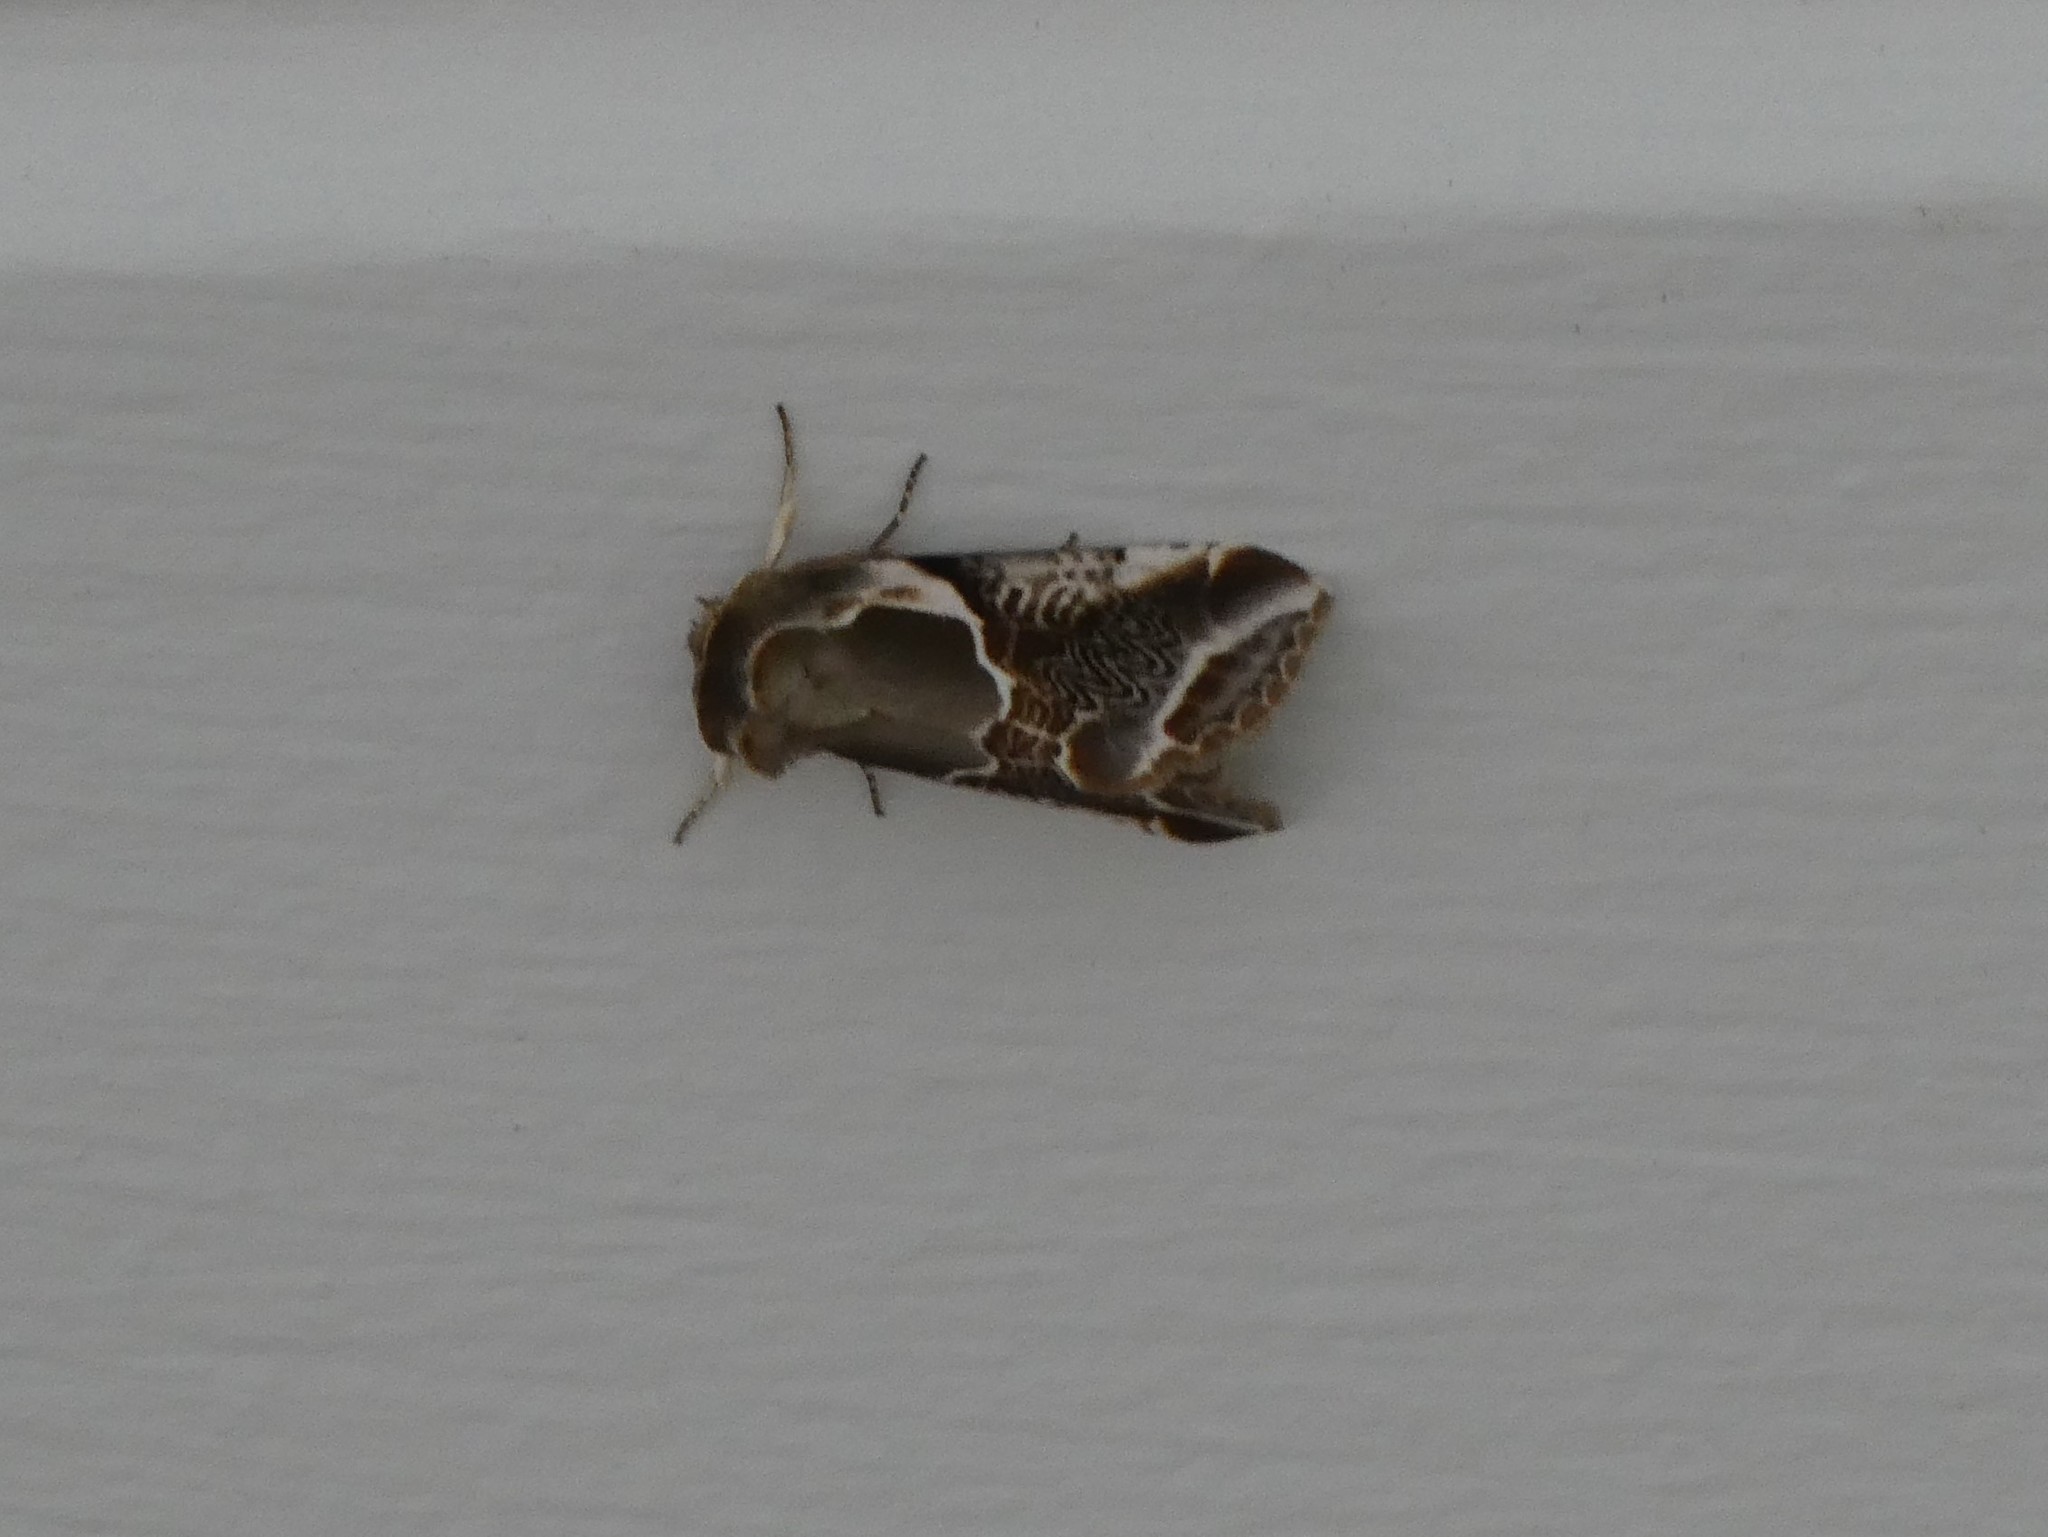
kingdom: Animalia
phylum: Arthropoda
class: Insecta
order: Lepidoptera
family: Drepanidae
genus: Habrosyne
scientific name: Habrosyne scripta
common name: Lettered habrosyne moth
